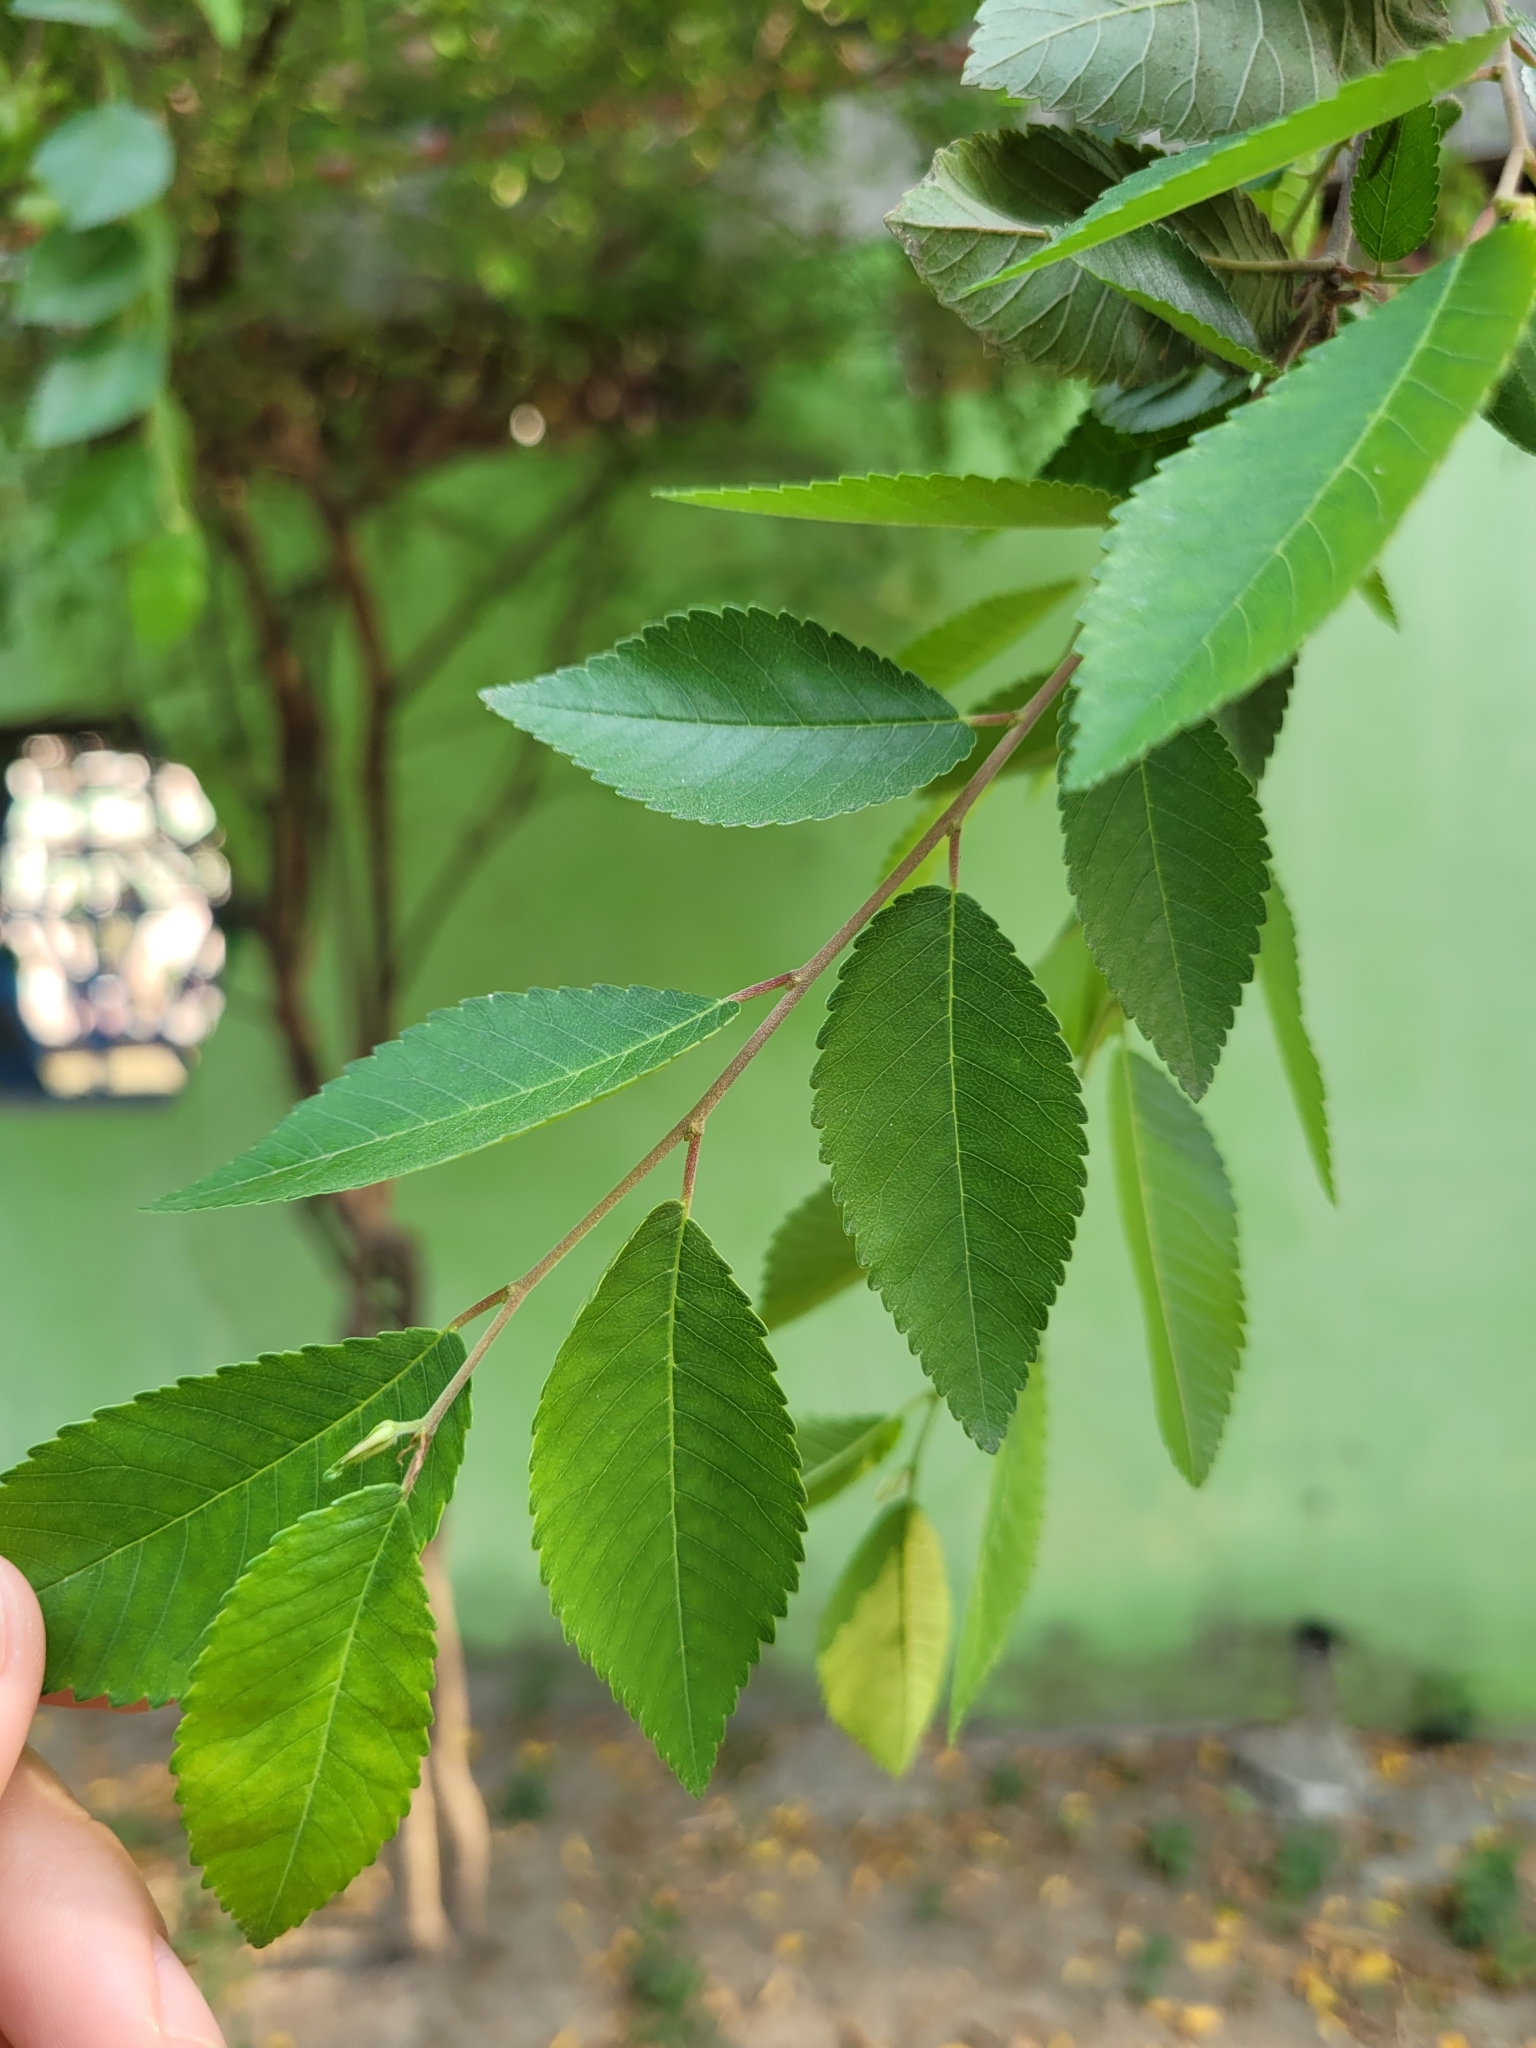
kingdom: Plantae
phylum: Tracheophyta
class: Magnoliopsida
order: Rosales
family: Ulmaceae
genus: Ulmus
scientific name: Ulmus parvifolia
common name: Chinese elm
